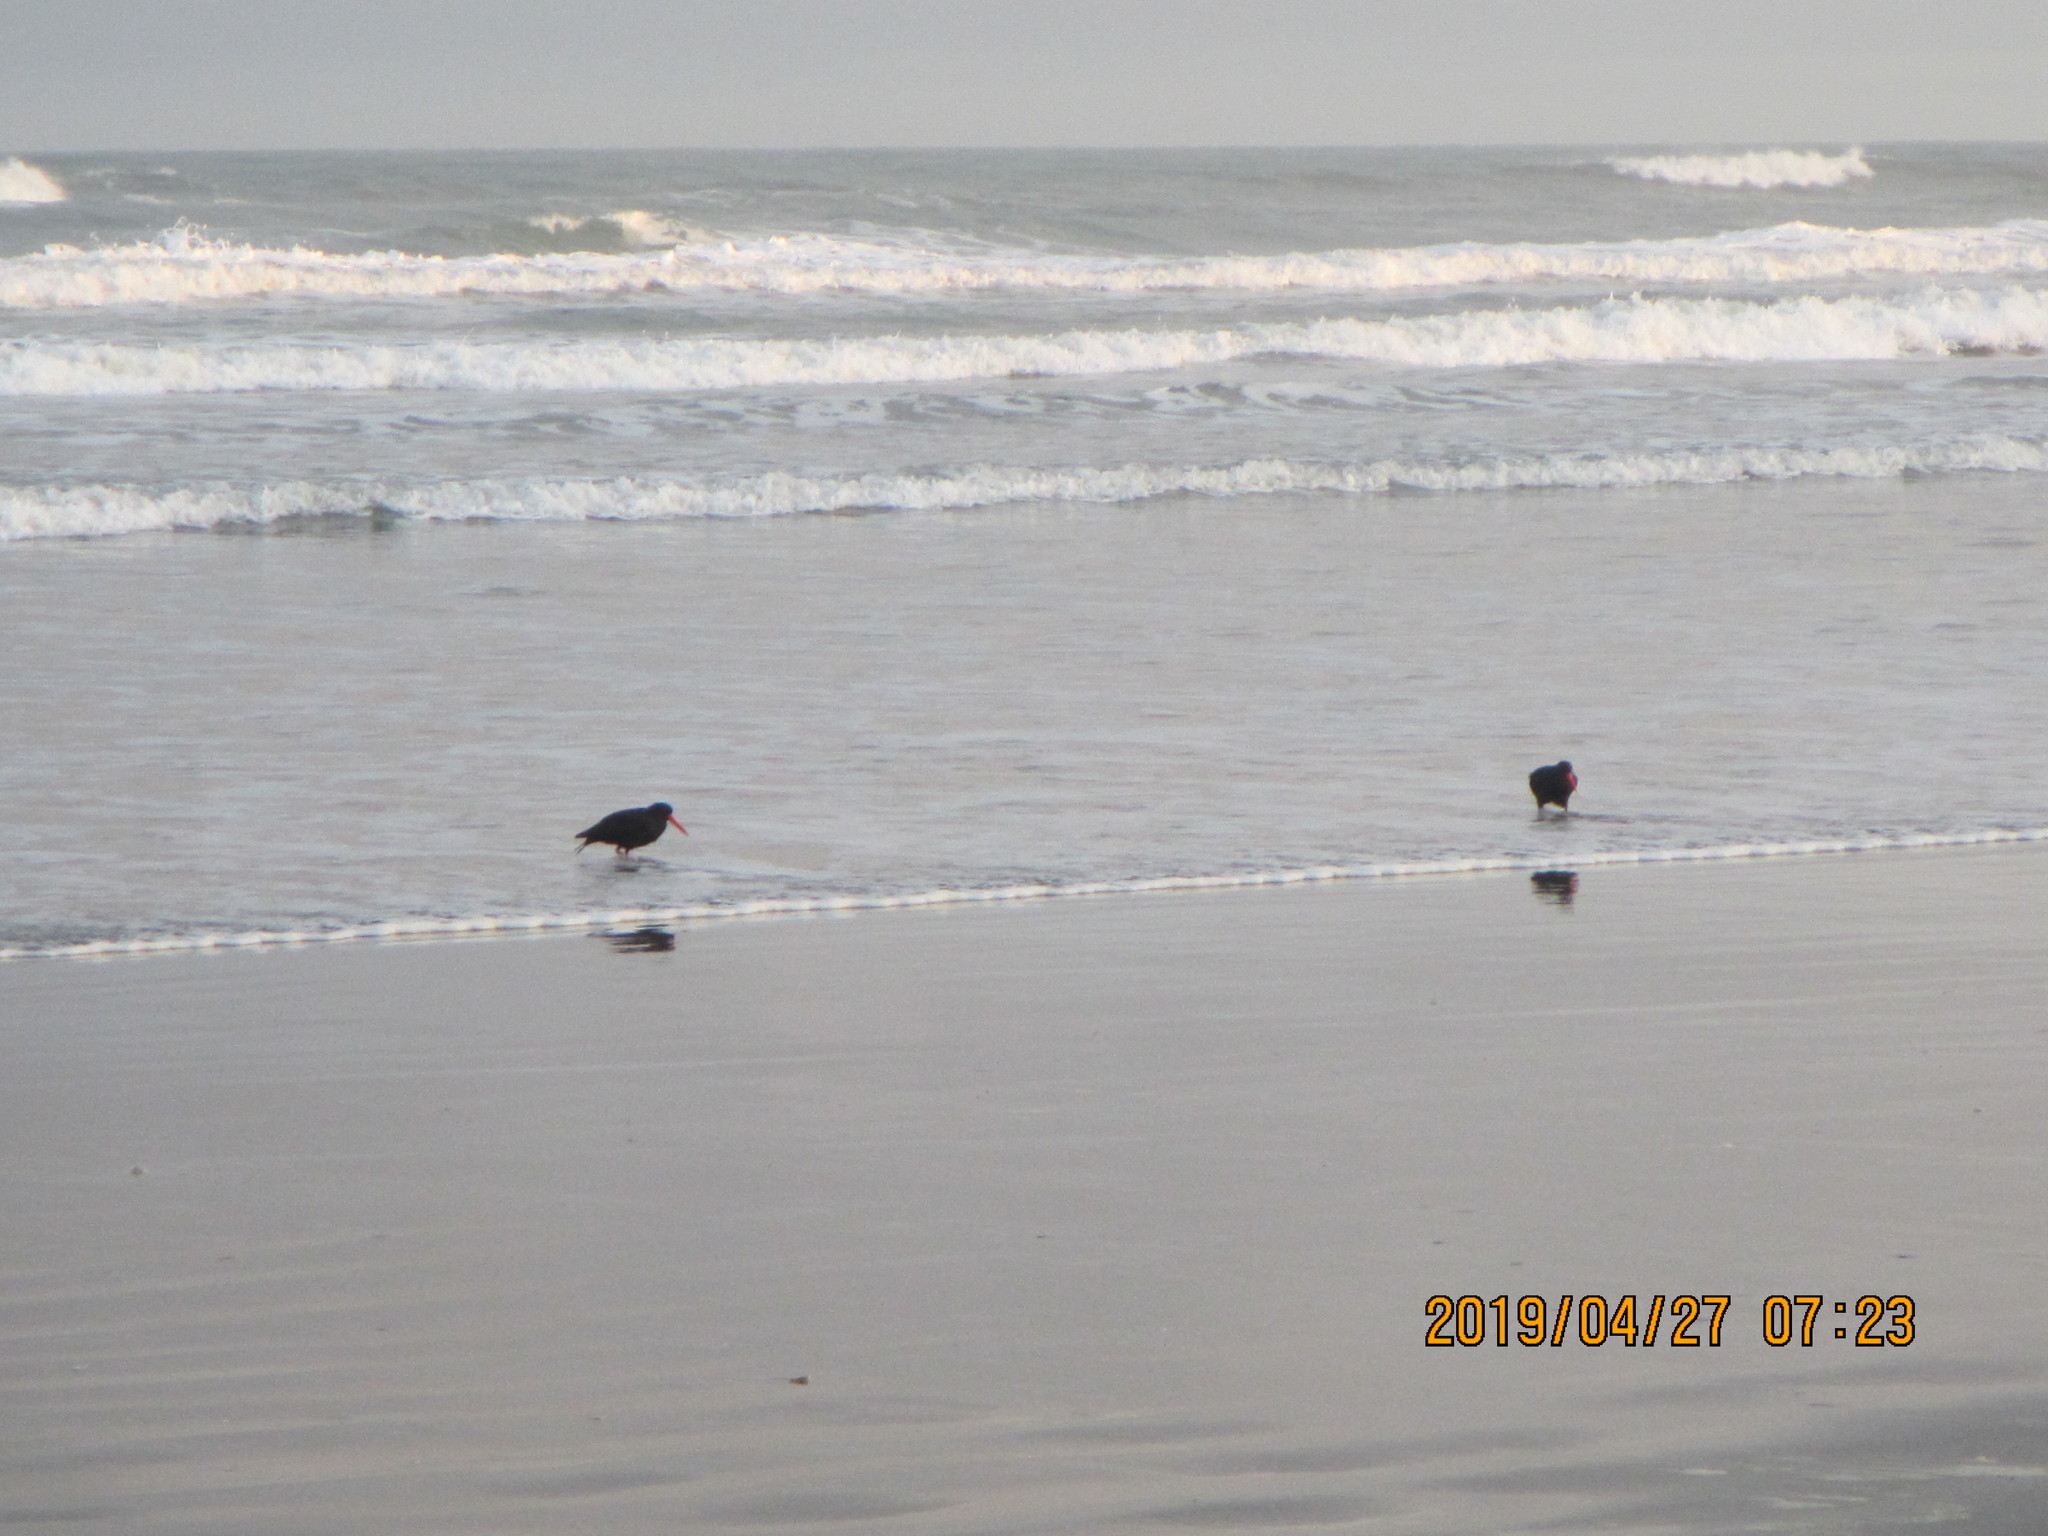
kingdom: Animalia
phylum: Chordata
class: Aves
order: Charadriiformes
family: Haematopodidae
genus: Haematopus
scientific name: Haematopus unicolor
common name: Variable oystercatcher
